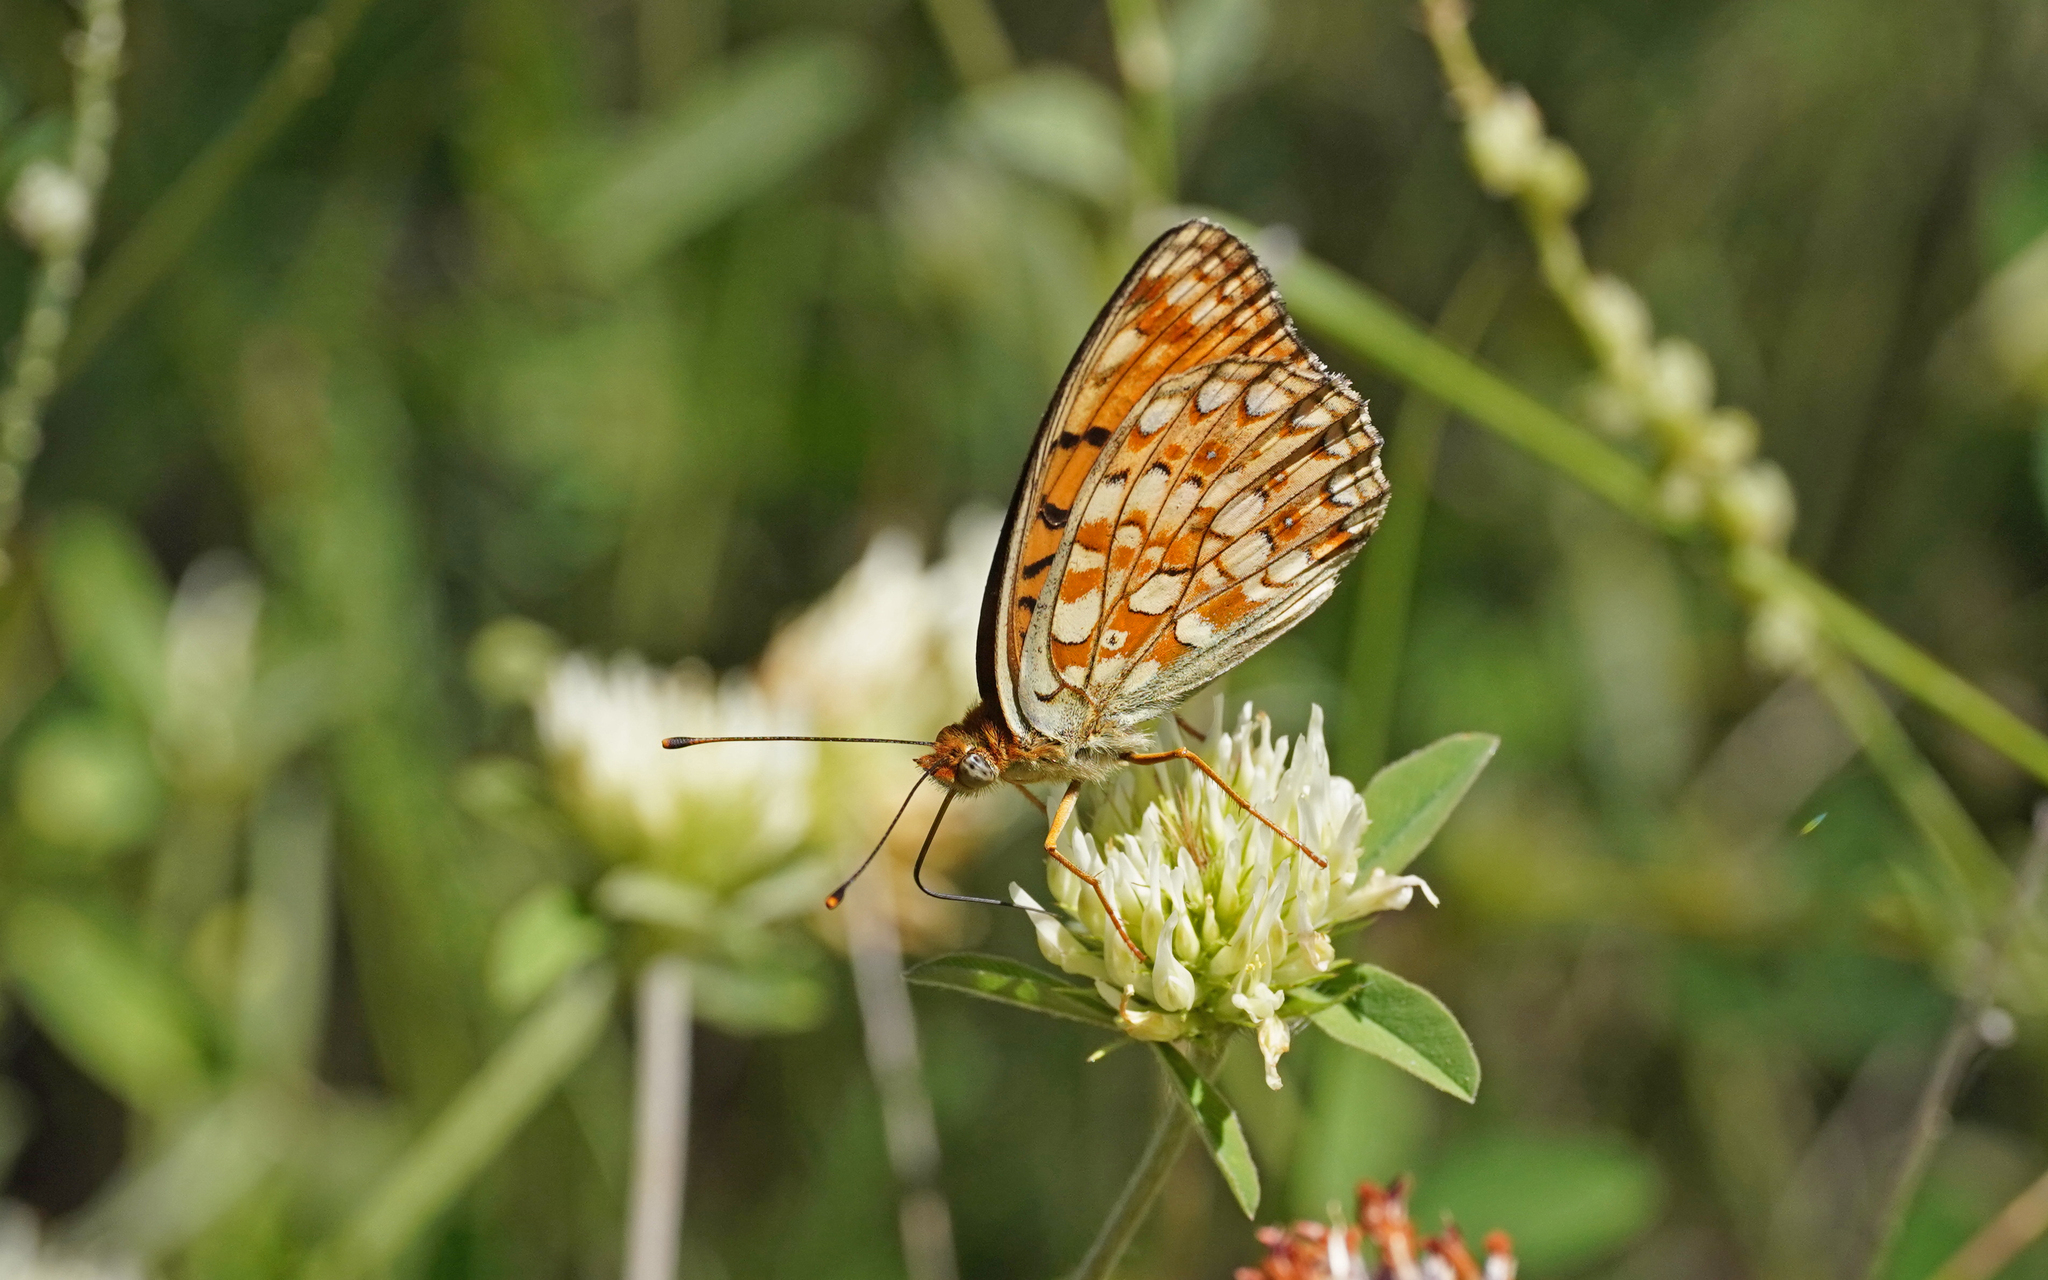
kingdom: Animalia
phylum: Arthropoda
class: Insecta
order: Lepidoptera
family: Nymphalidae
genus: Fabriciana
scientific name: Fabriciana niobe
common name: Niobe fritillary
